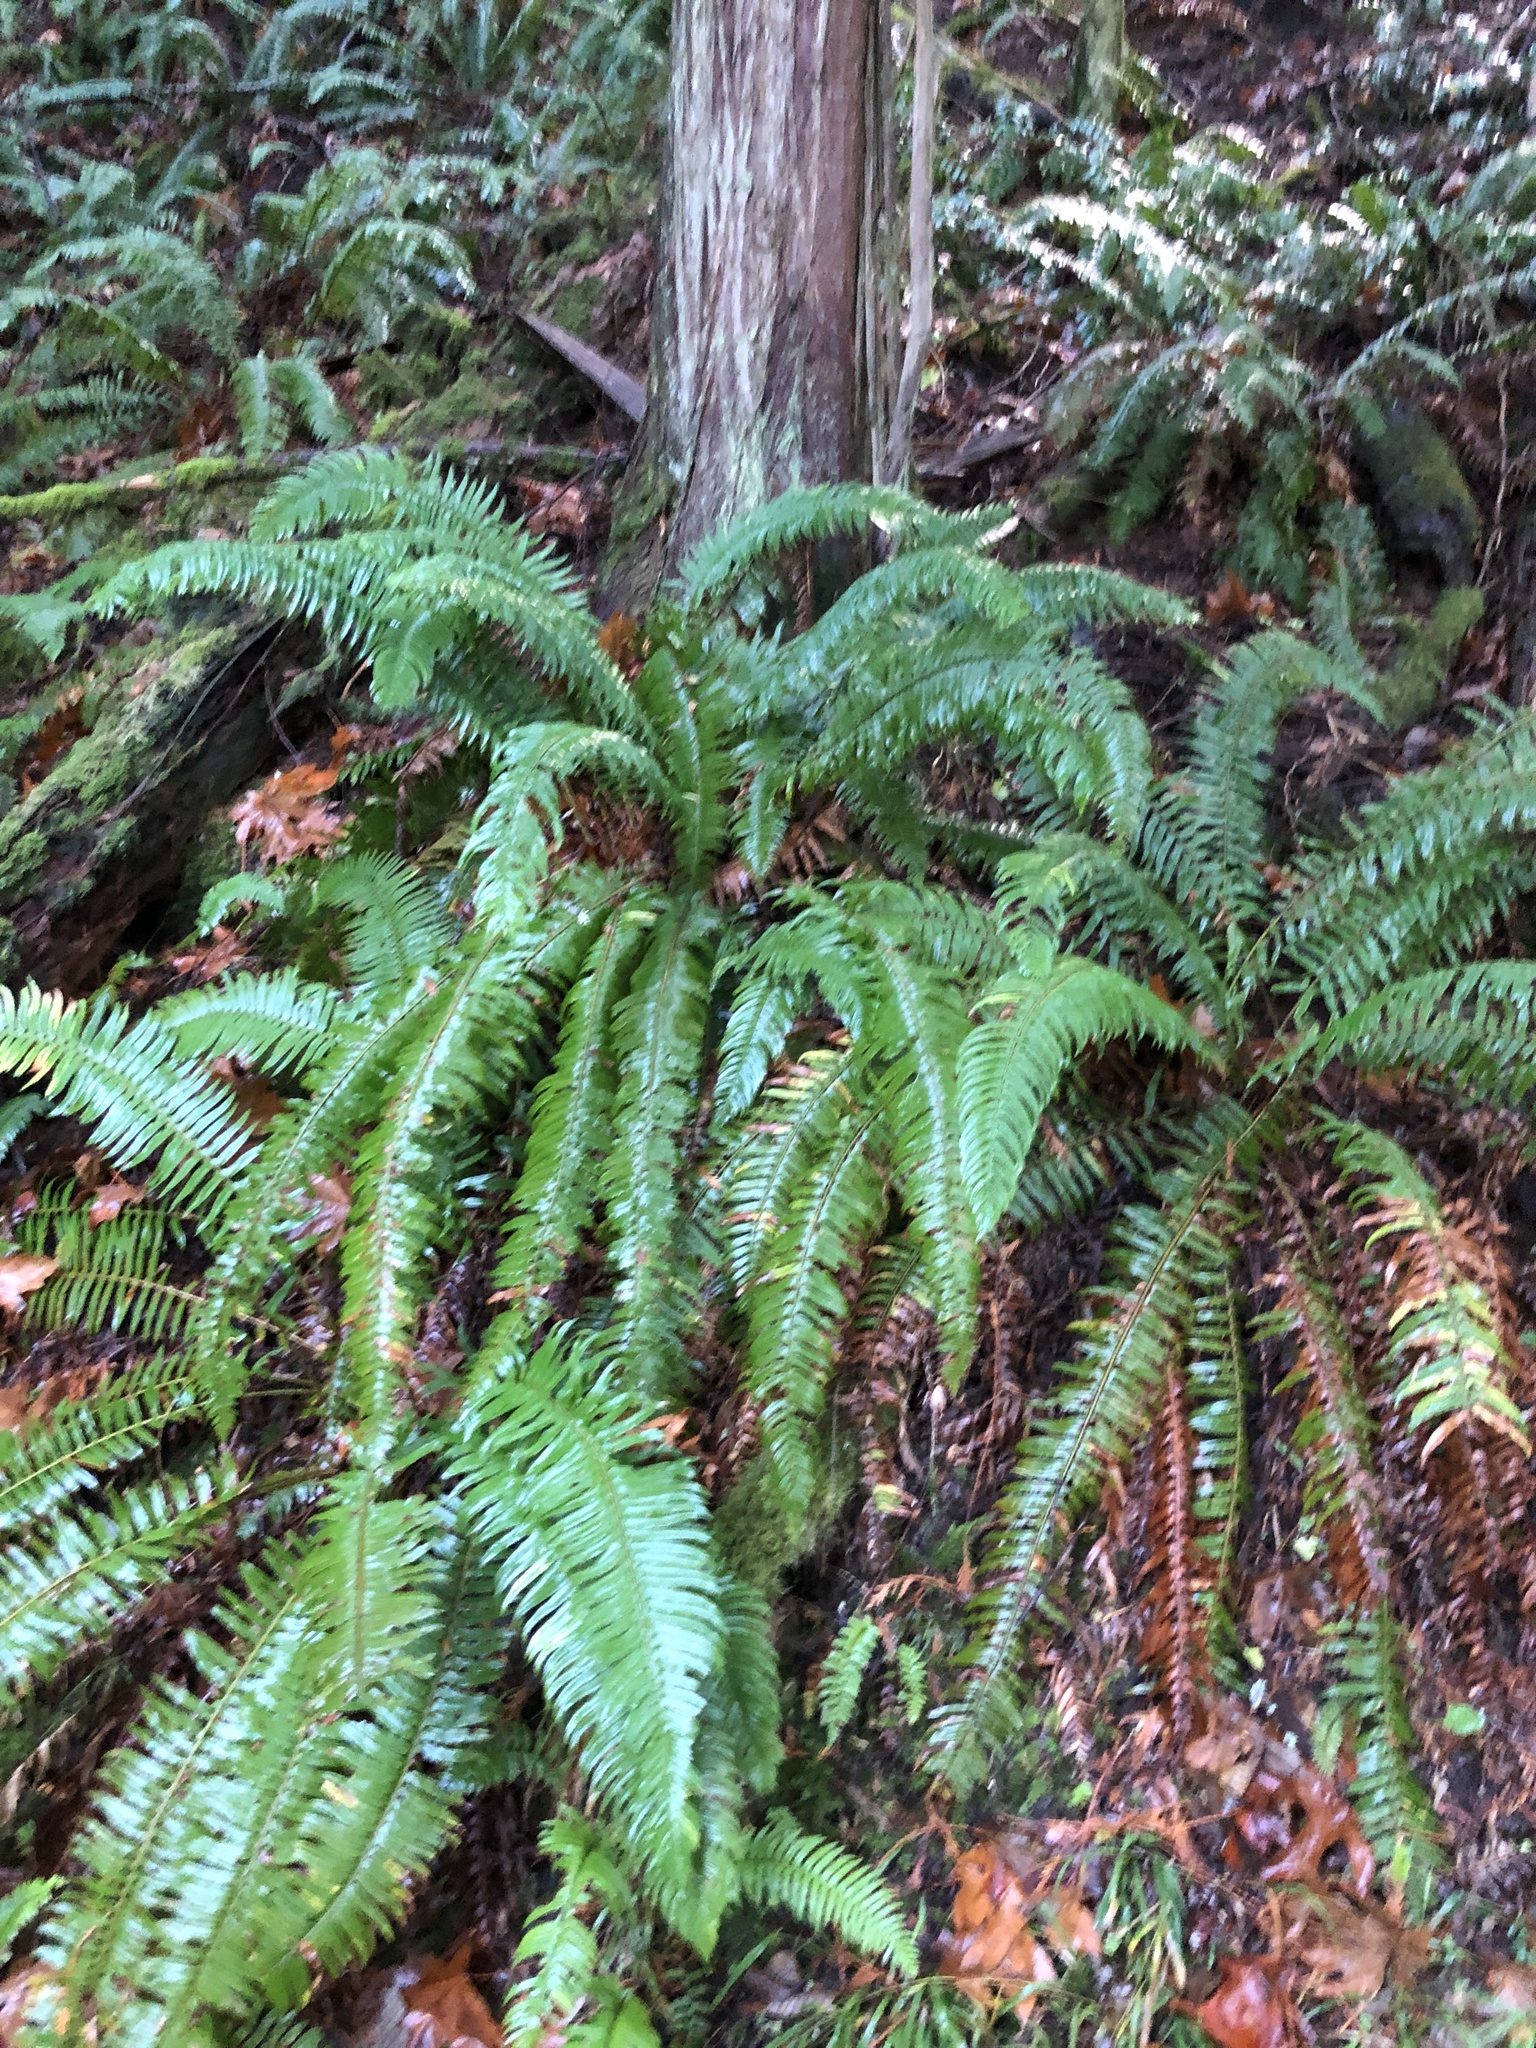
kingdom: Plantae
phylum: Tracheophyta
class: Polypodiopsida
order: Polypodiales
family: Dryopteridaceae
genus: Polystichum
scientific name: Polystichum munitum
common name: Western sword-fern
